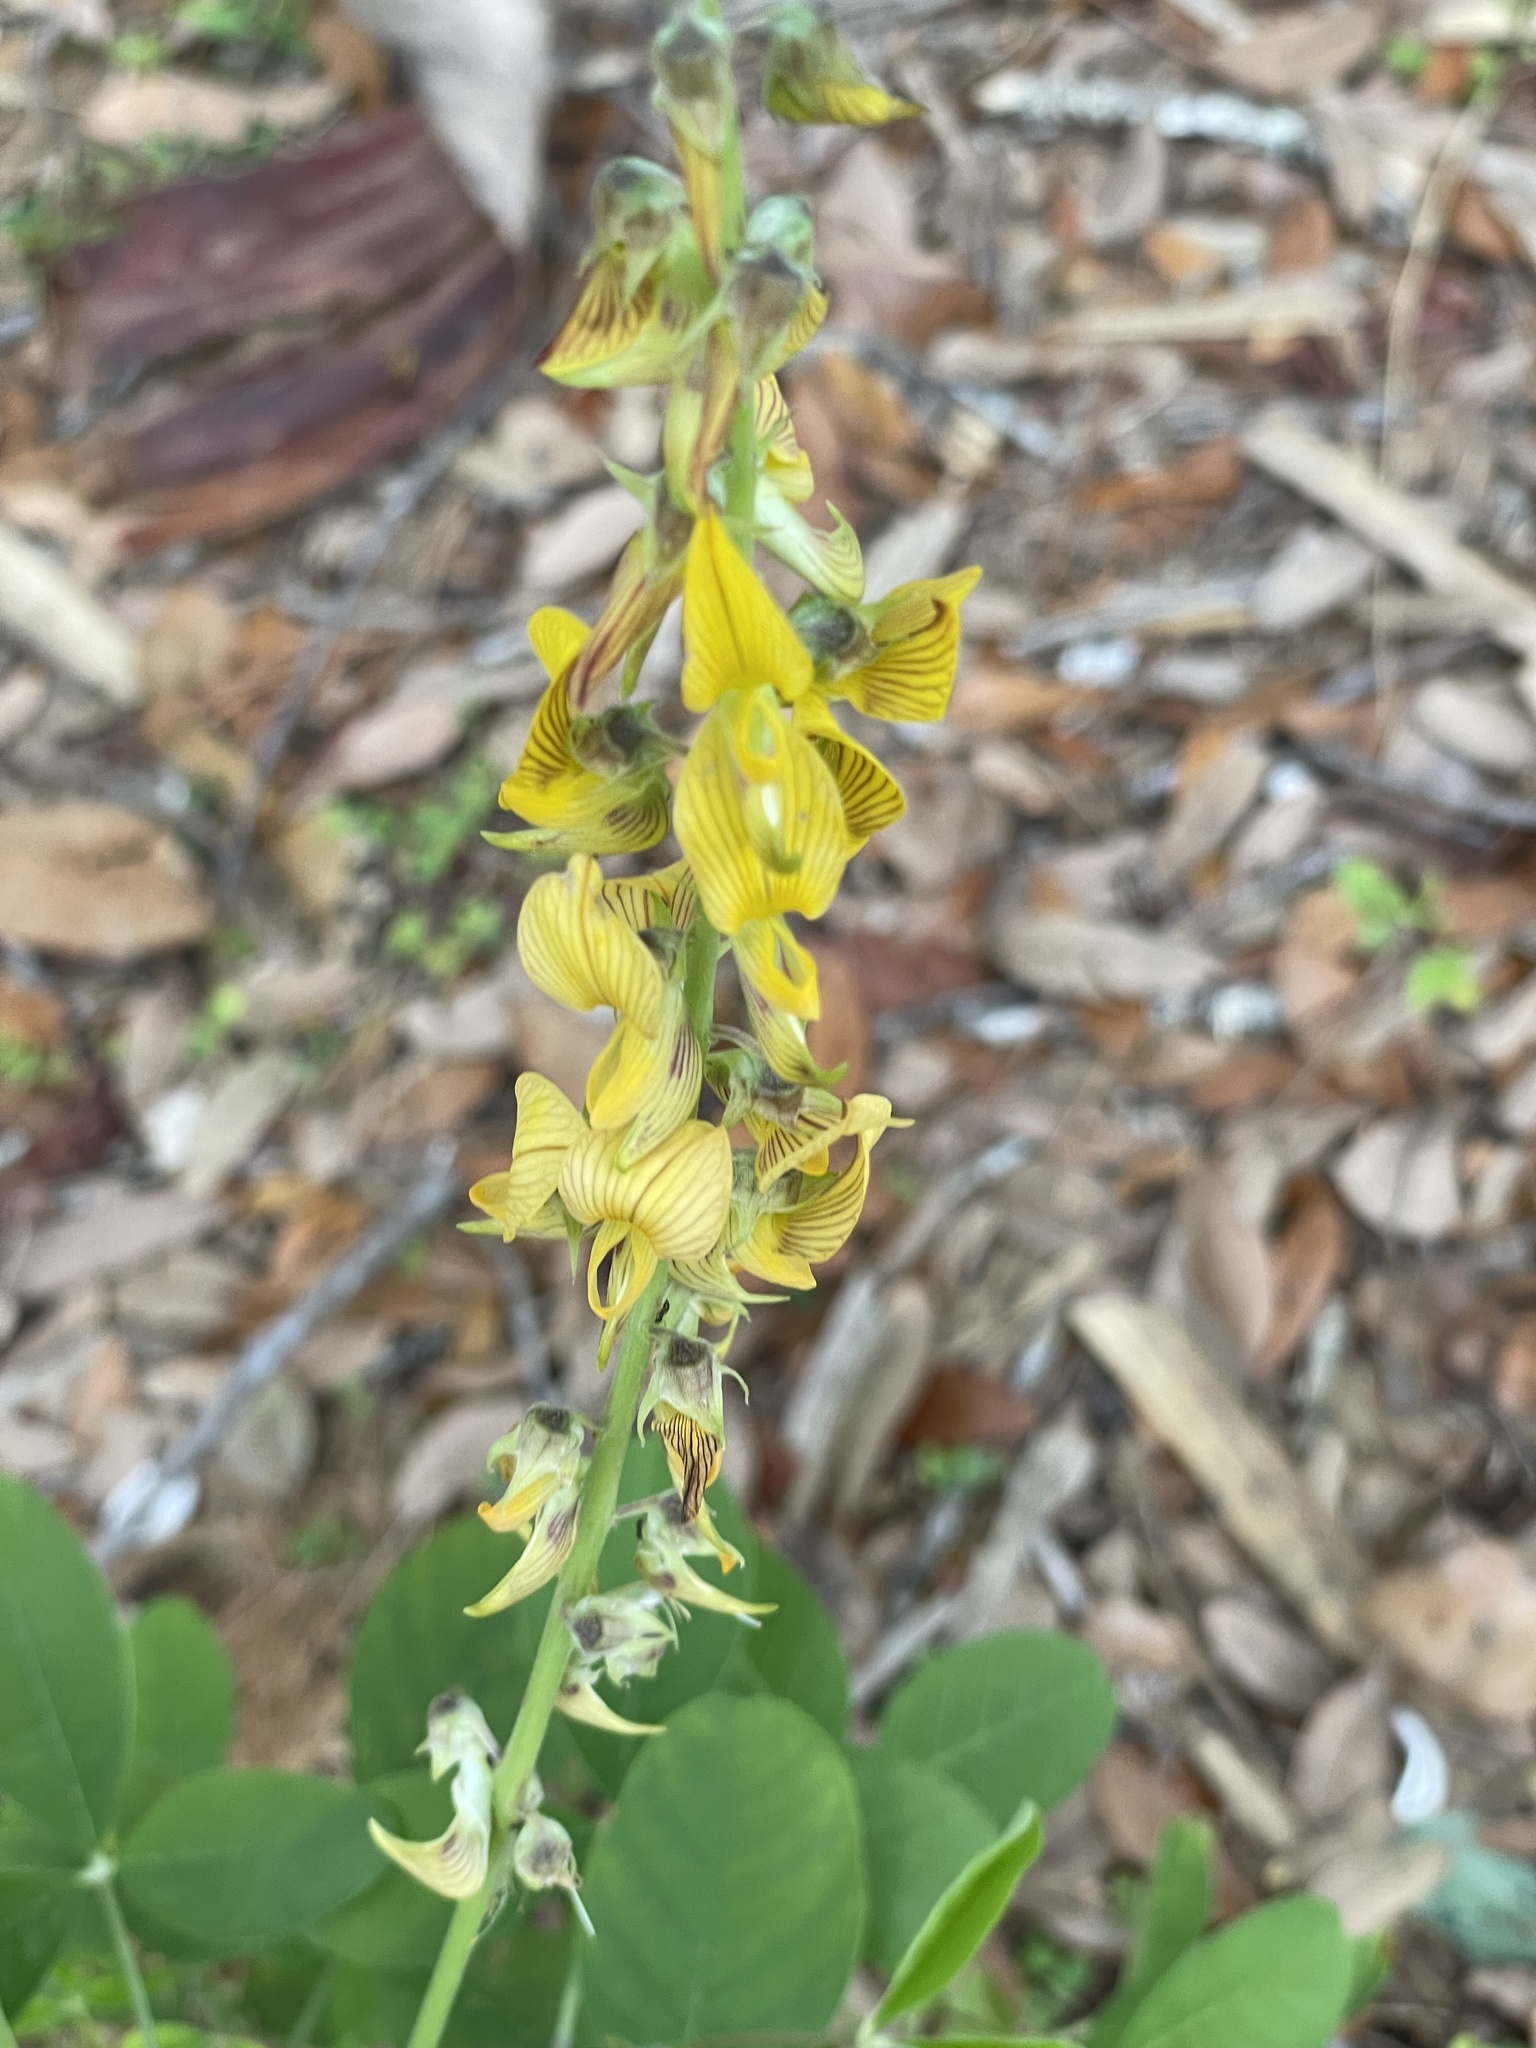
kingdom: Plantae
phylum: Tracheophyta
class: Magnoliopsida
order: Fabales
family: Fabaceae
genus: Crotalaria
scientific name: Crotalaria pallida
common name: Smooth rattlebox
